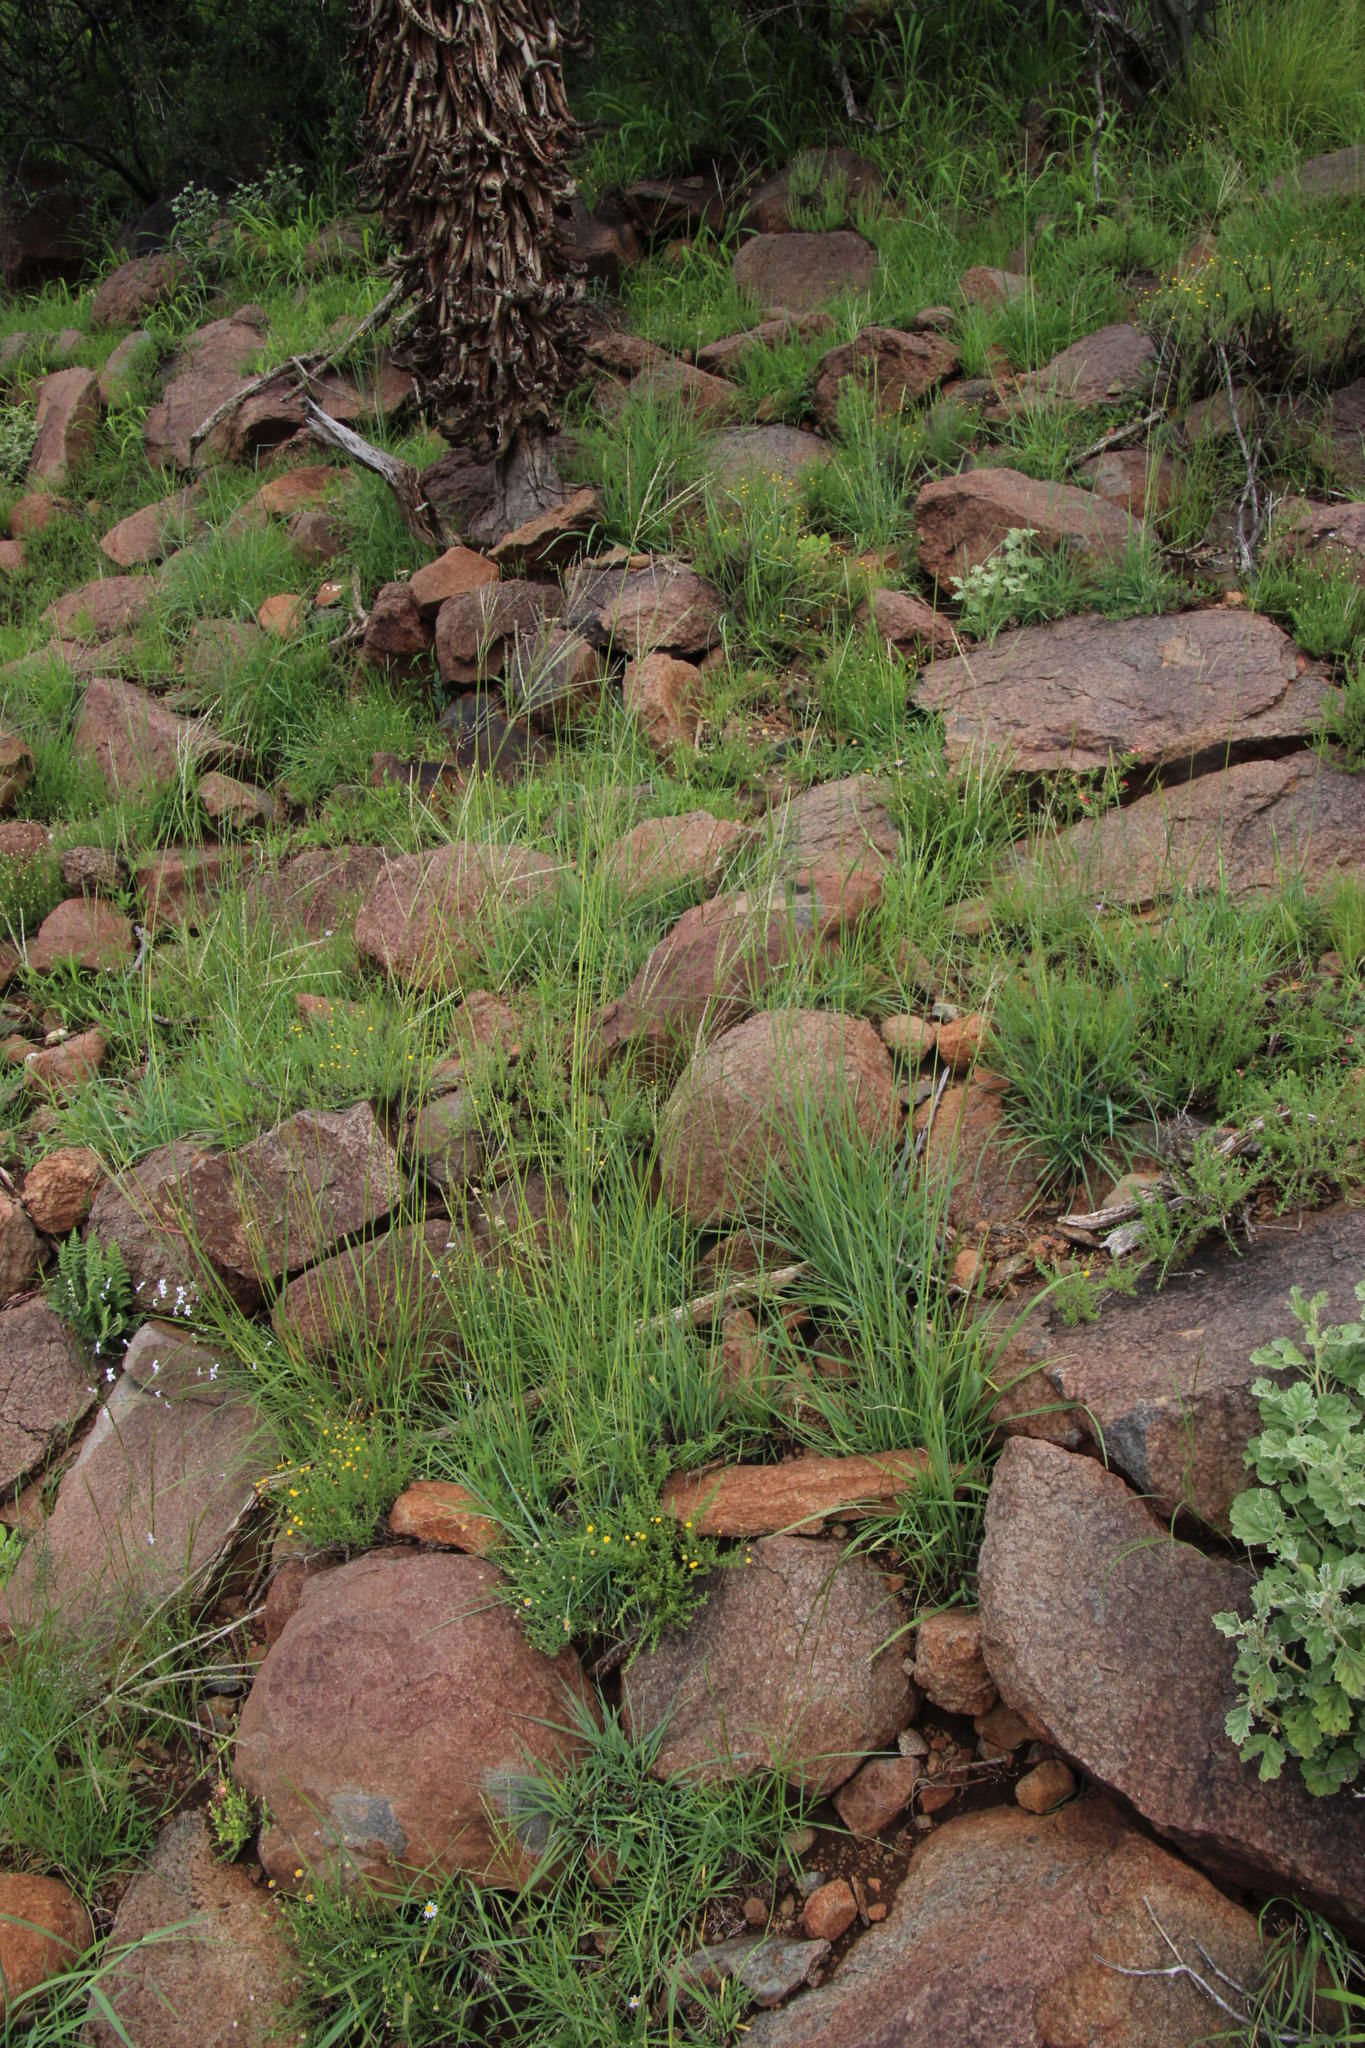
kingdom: Plantae
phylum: Tracheophyta
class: Liliopsida
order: Poales
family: Poaceae
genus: Digitaria
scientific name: Digitaria eriantha
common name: Digitgrass
